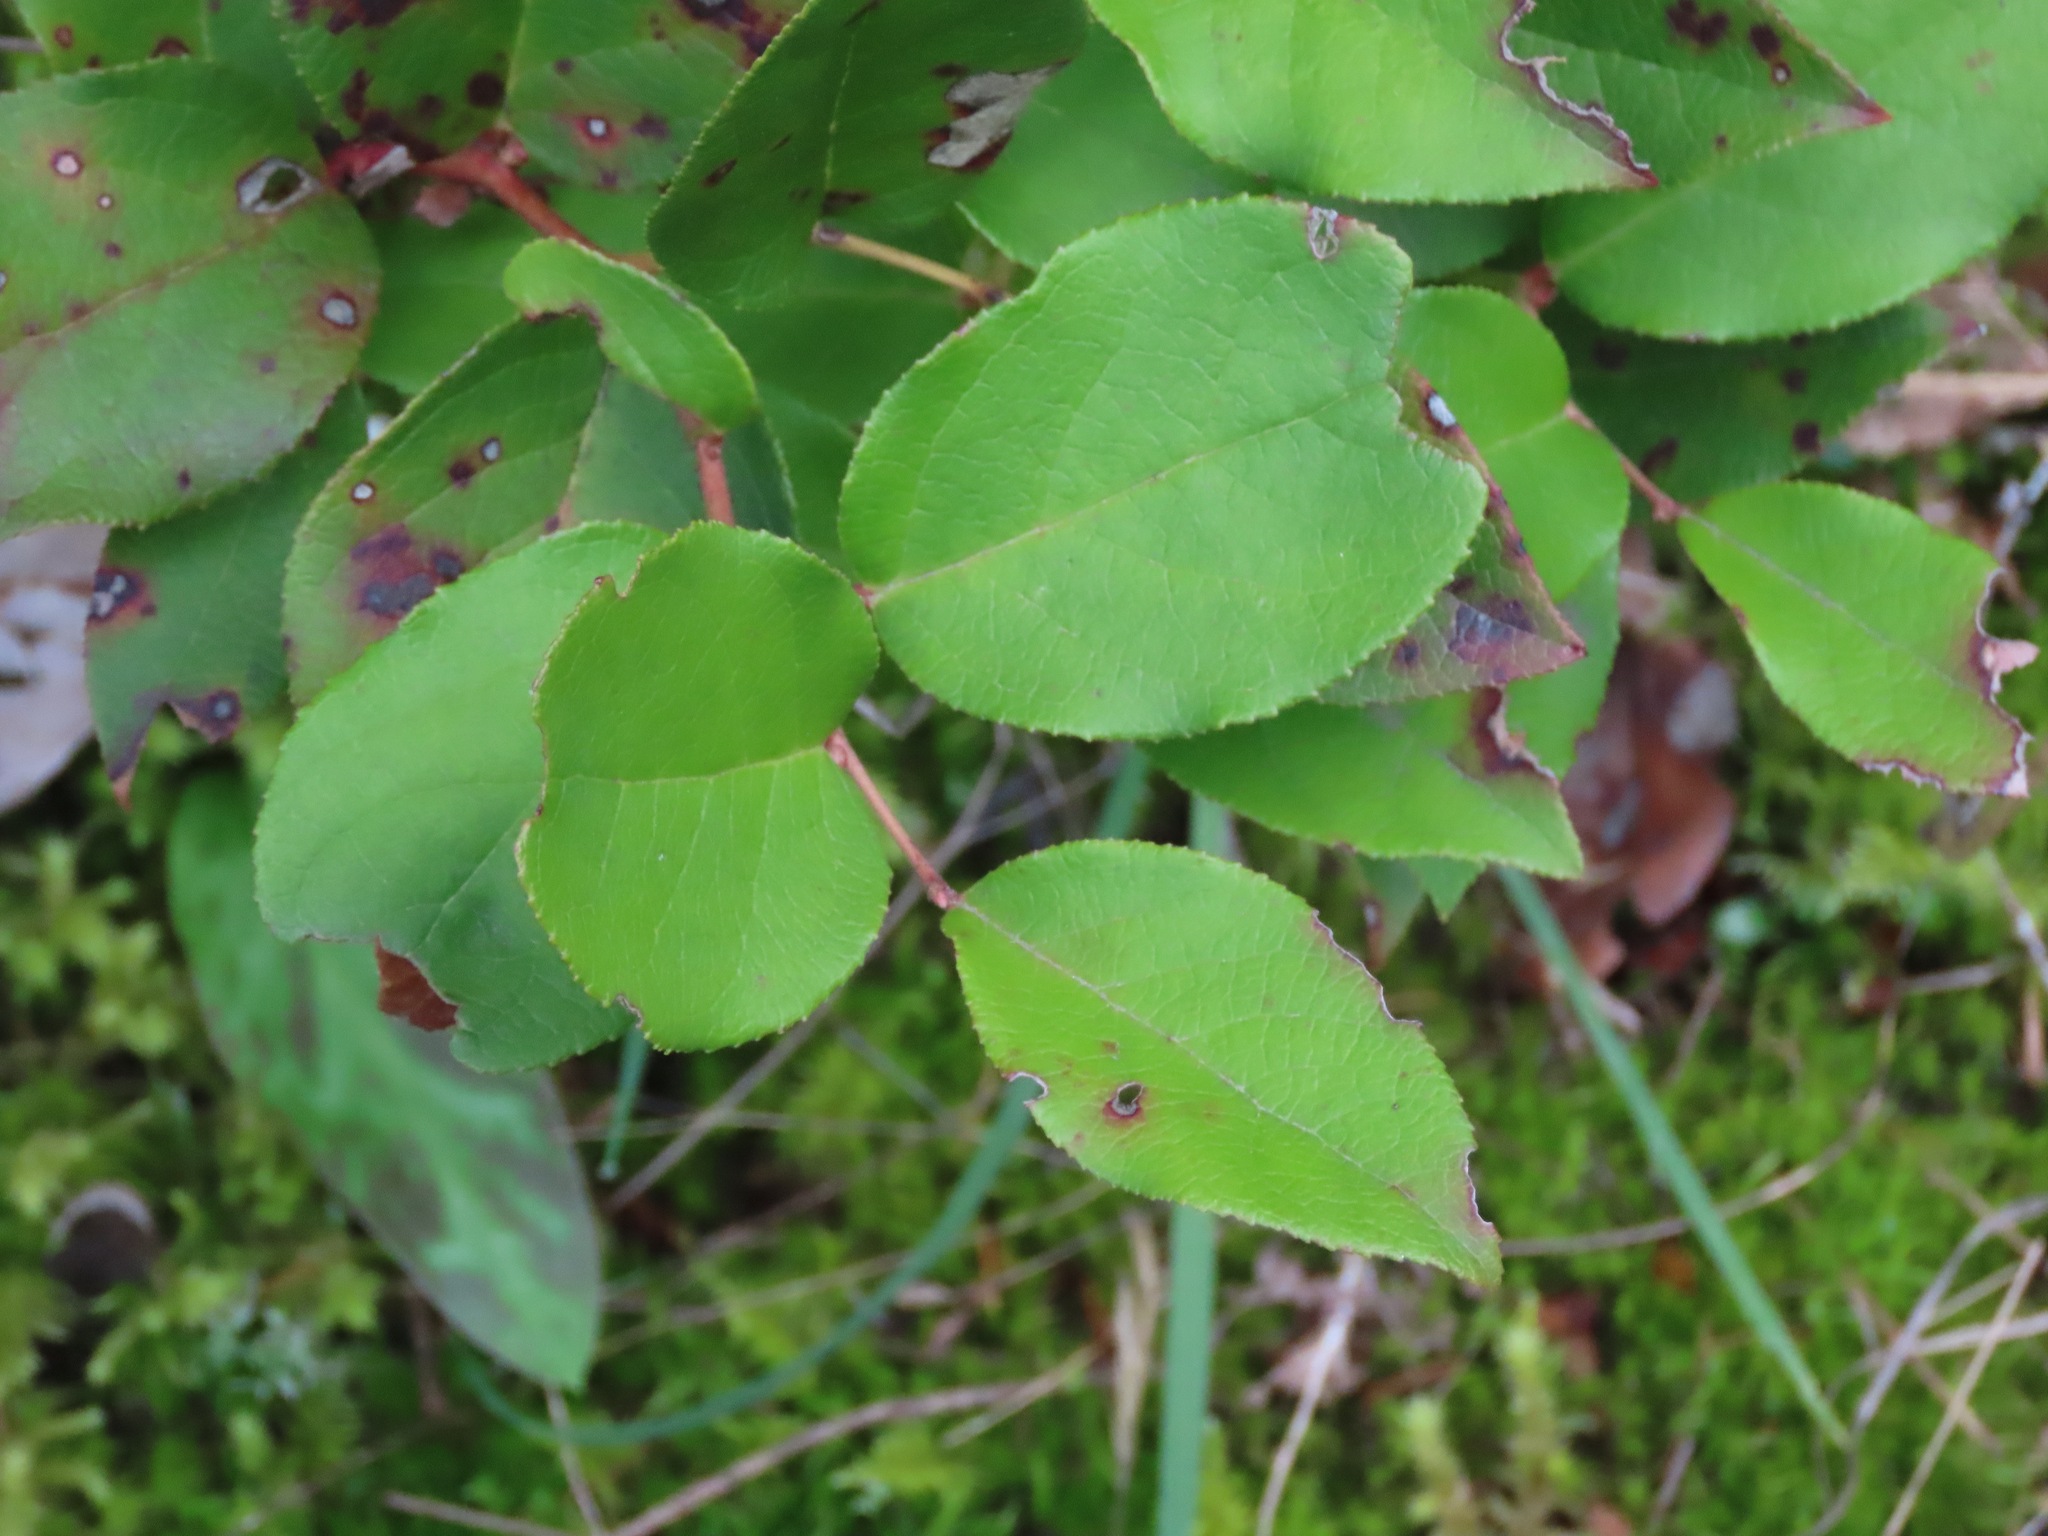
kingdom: Plantae
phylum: Tracheophyta
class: Magnoliopsida
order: Ericales
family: Ericaceae
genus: Gaultheria
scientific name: Gaultheria shallon
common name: Shallon
